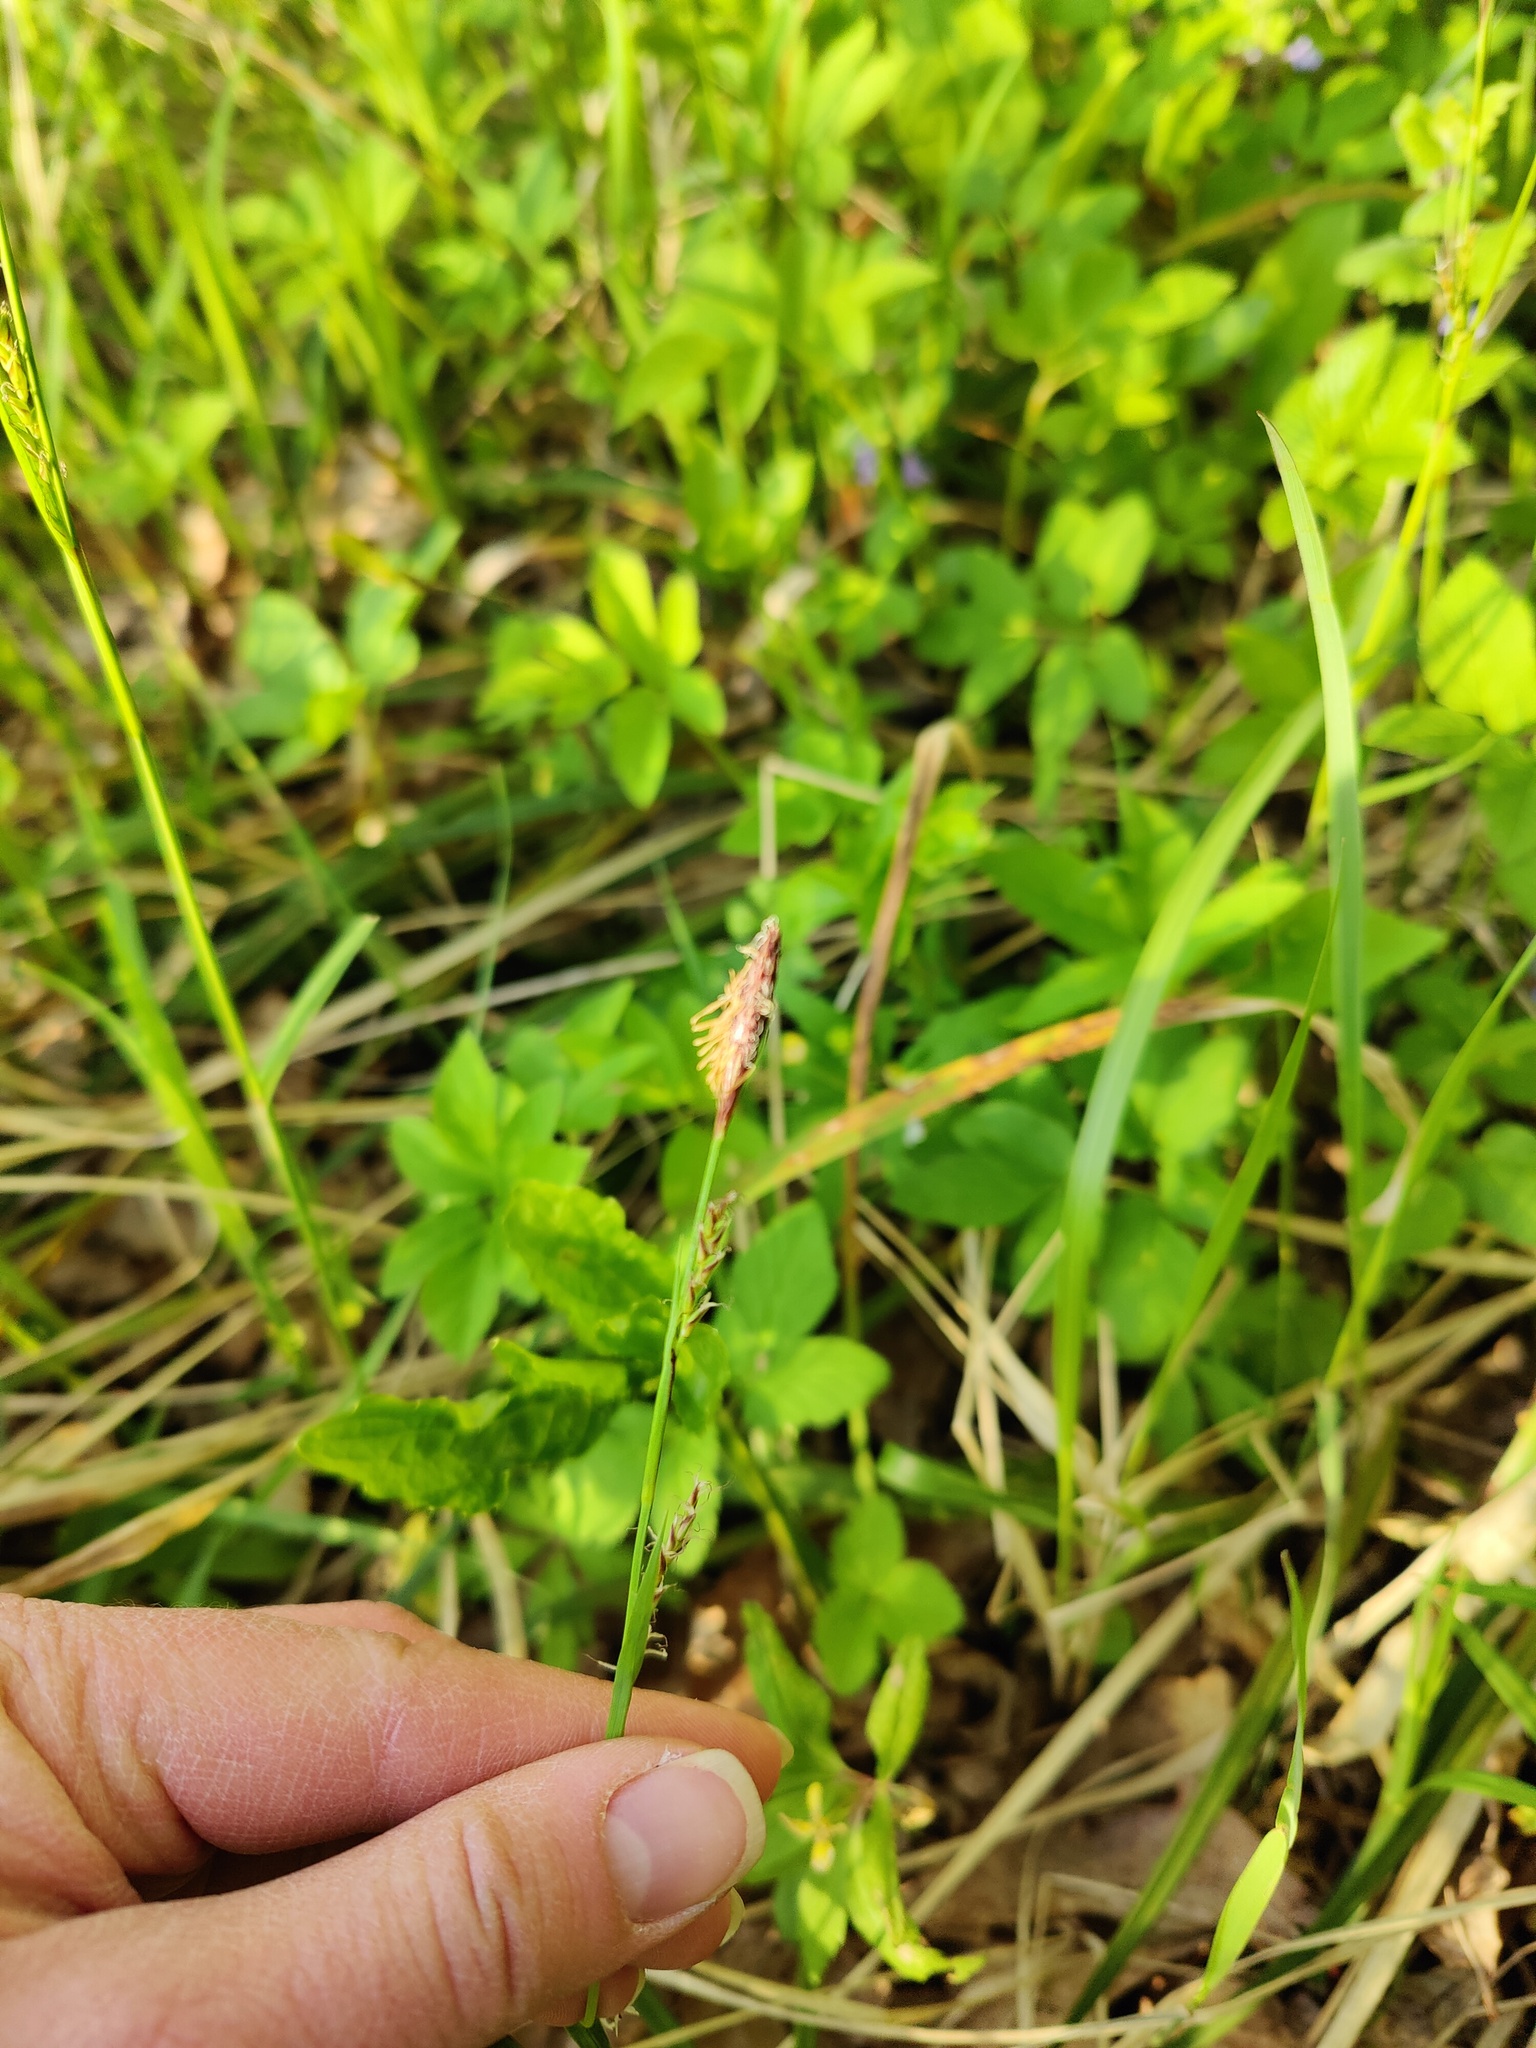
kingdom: Plantae
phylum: Tracheophyta
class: Liliopsida
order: Poales
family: Cyperaceae
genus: Carex
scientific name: Carex pilosa
